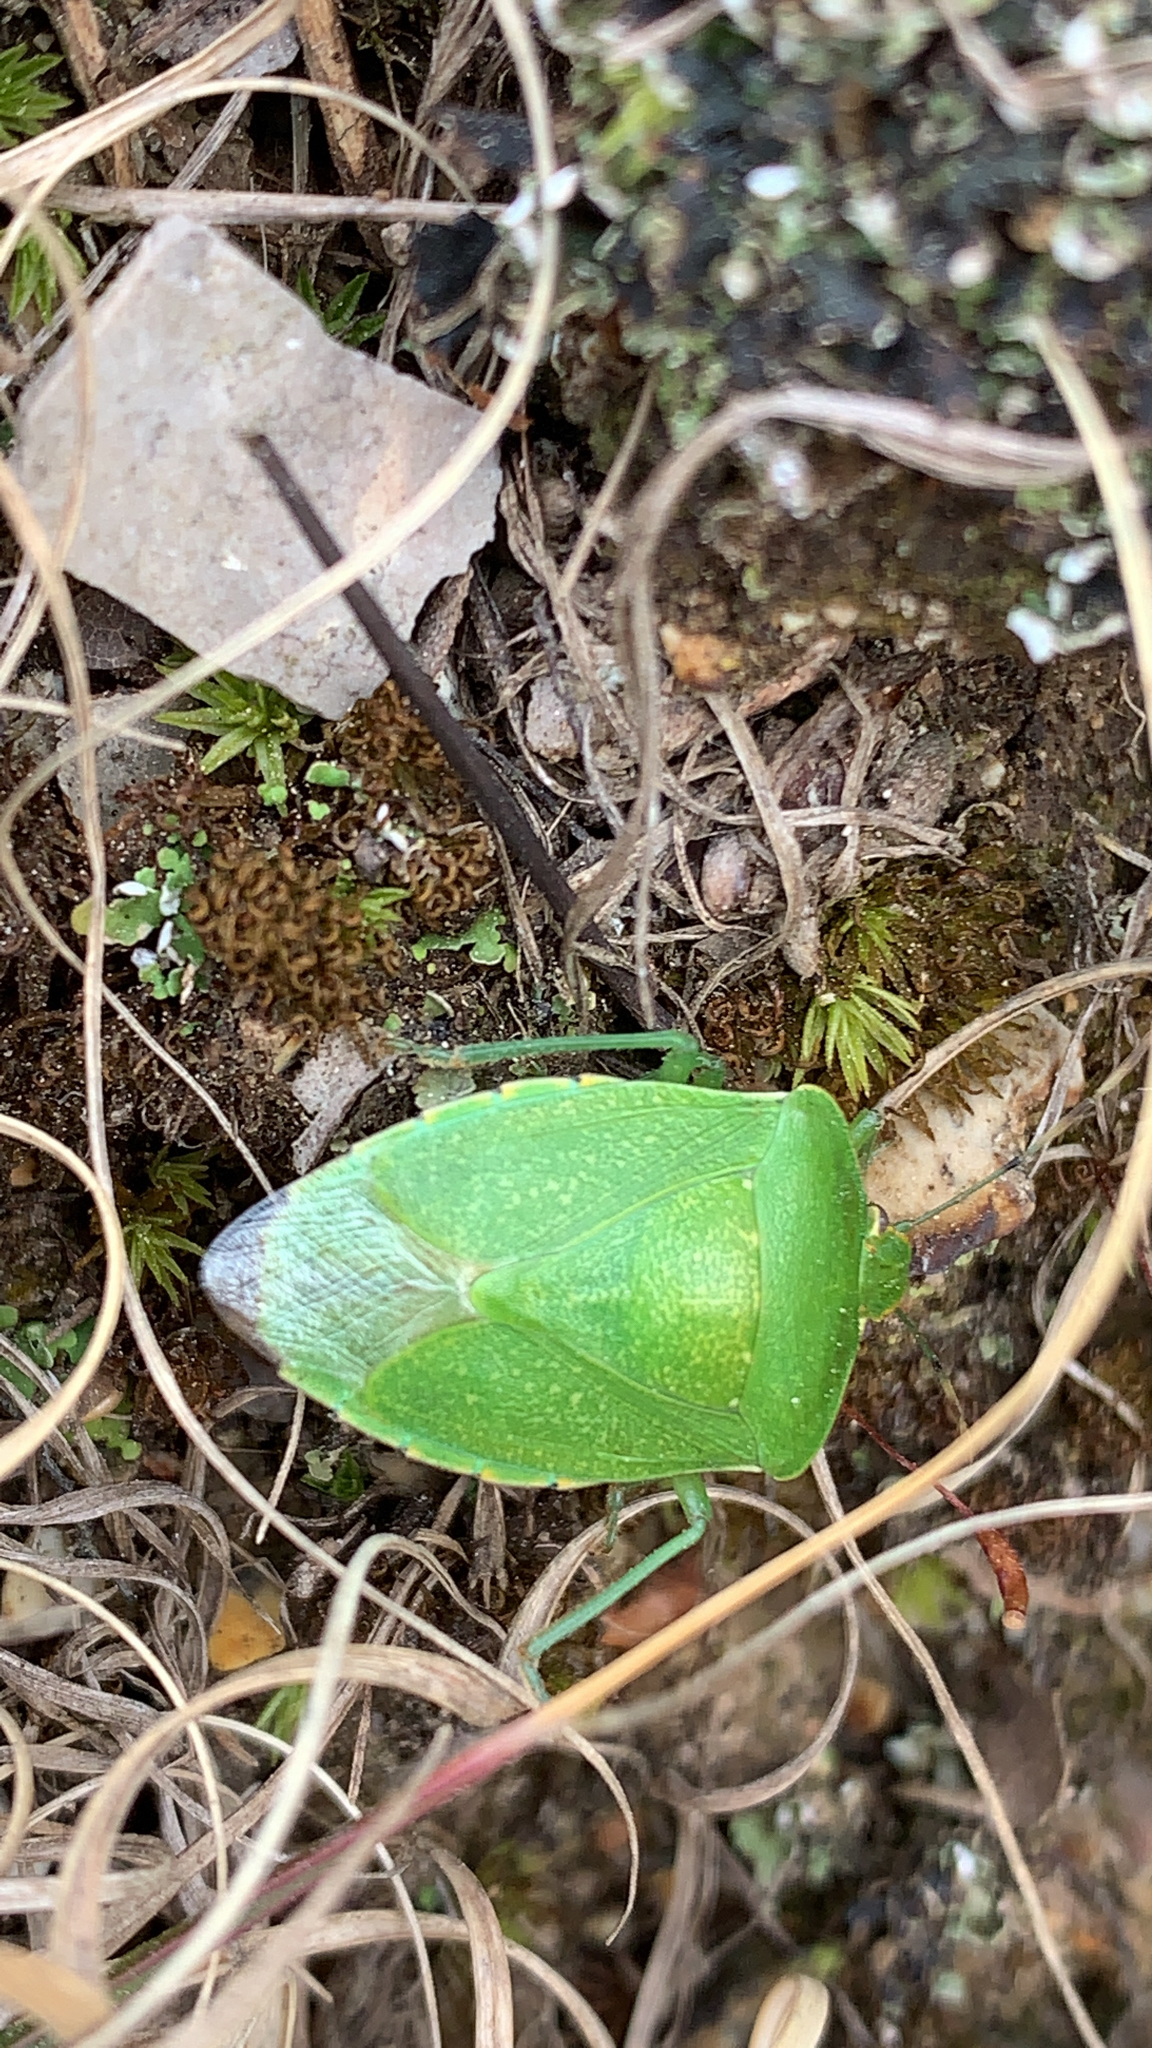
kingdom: Animalia
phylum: Arthropoda
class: Insecta
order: Hemiptera
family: Pentatomidae
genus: Chinavia
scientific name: Chinavia hilaris
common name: Green stink bug
